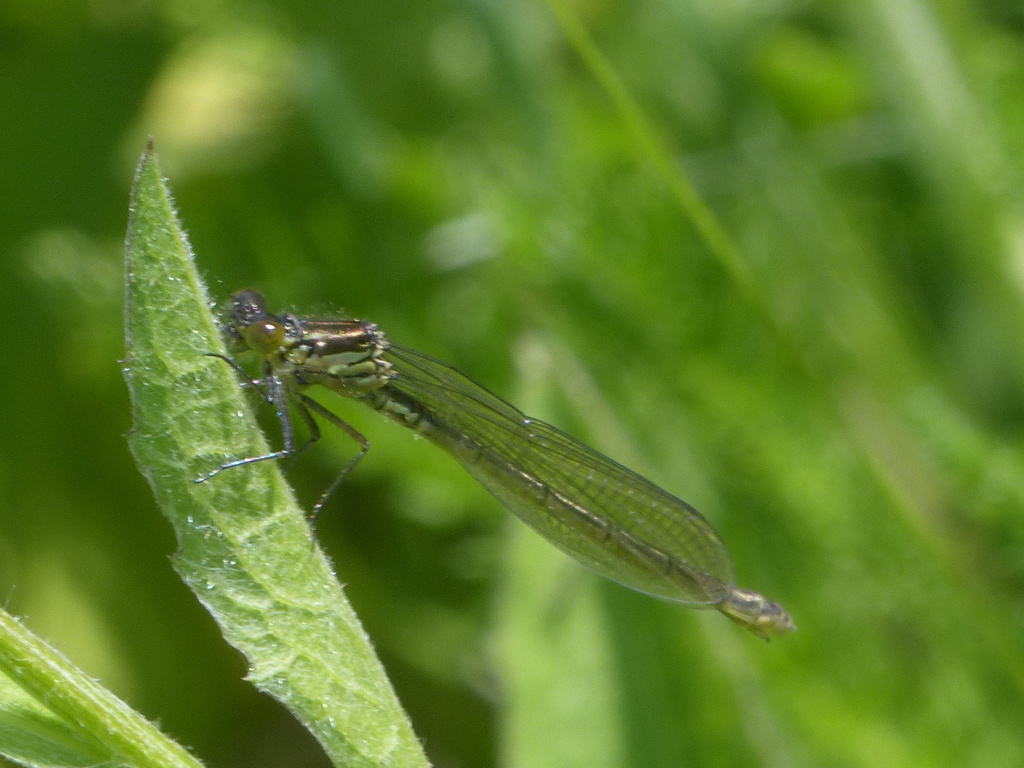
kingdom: Animalia
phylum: Arthropoda
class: Insecta
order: Odonata
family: Coenagrionidae
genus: Erythromma
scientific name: Erythromma najas
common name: Red-eyed damselfly
